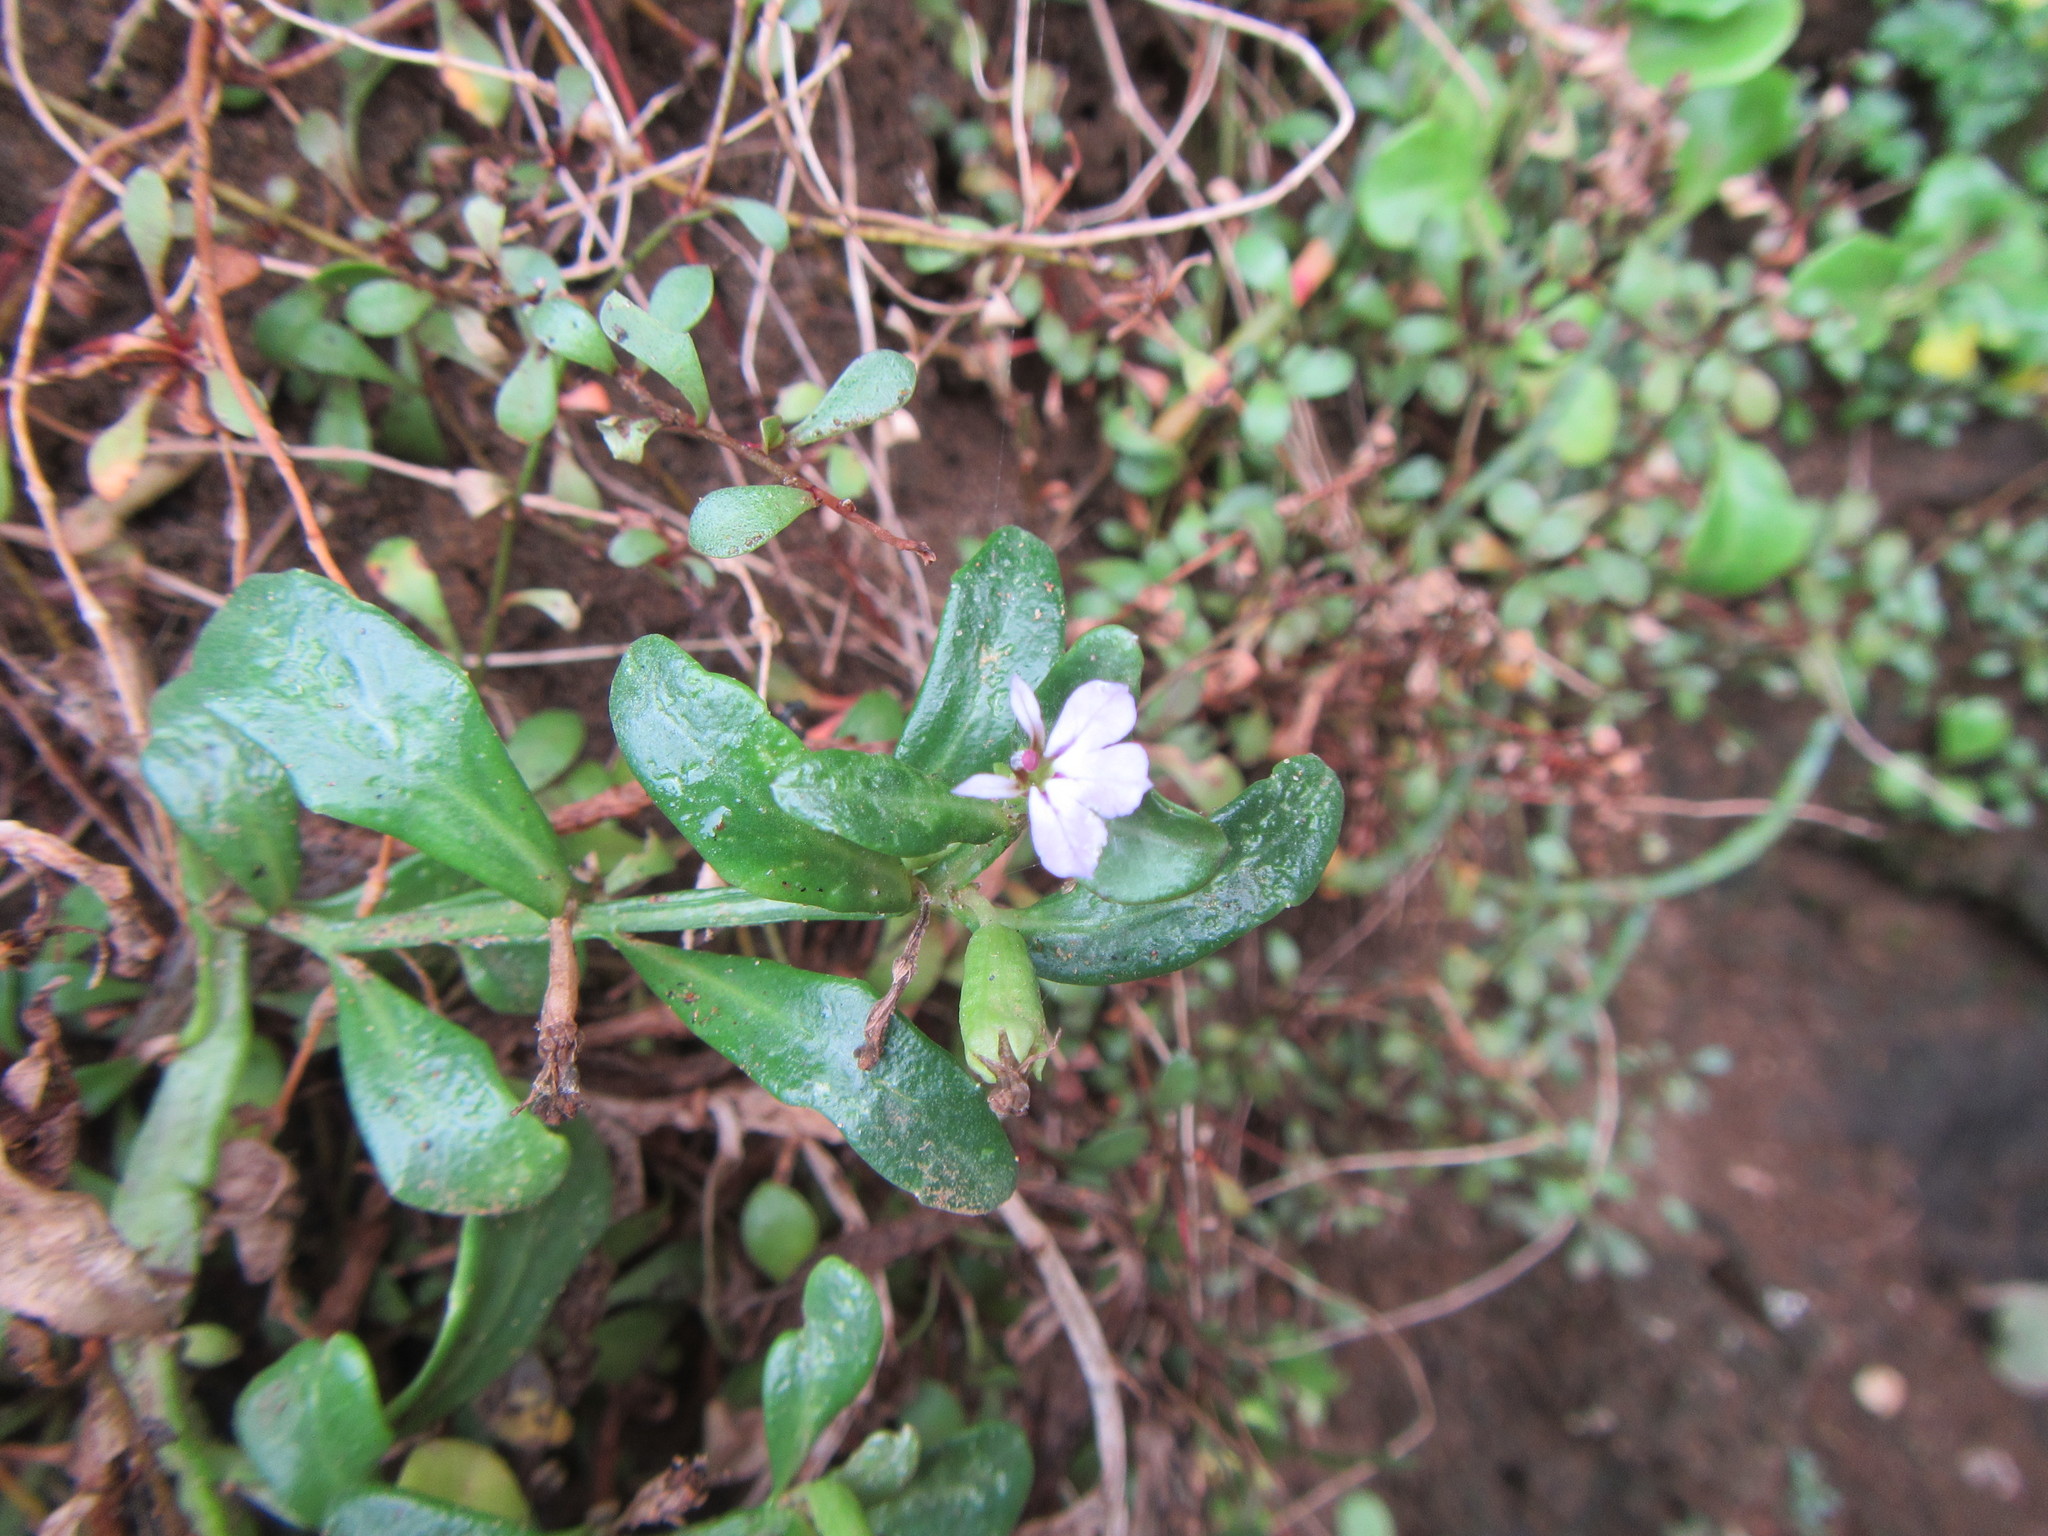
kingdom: Plantae
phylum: Tracheophyta
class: Magnoliopsida
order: Asterales
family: Campanulaceae
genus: Lobelia
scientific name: Lobelia anceps
